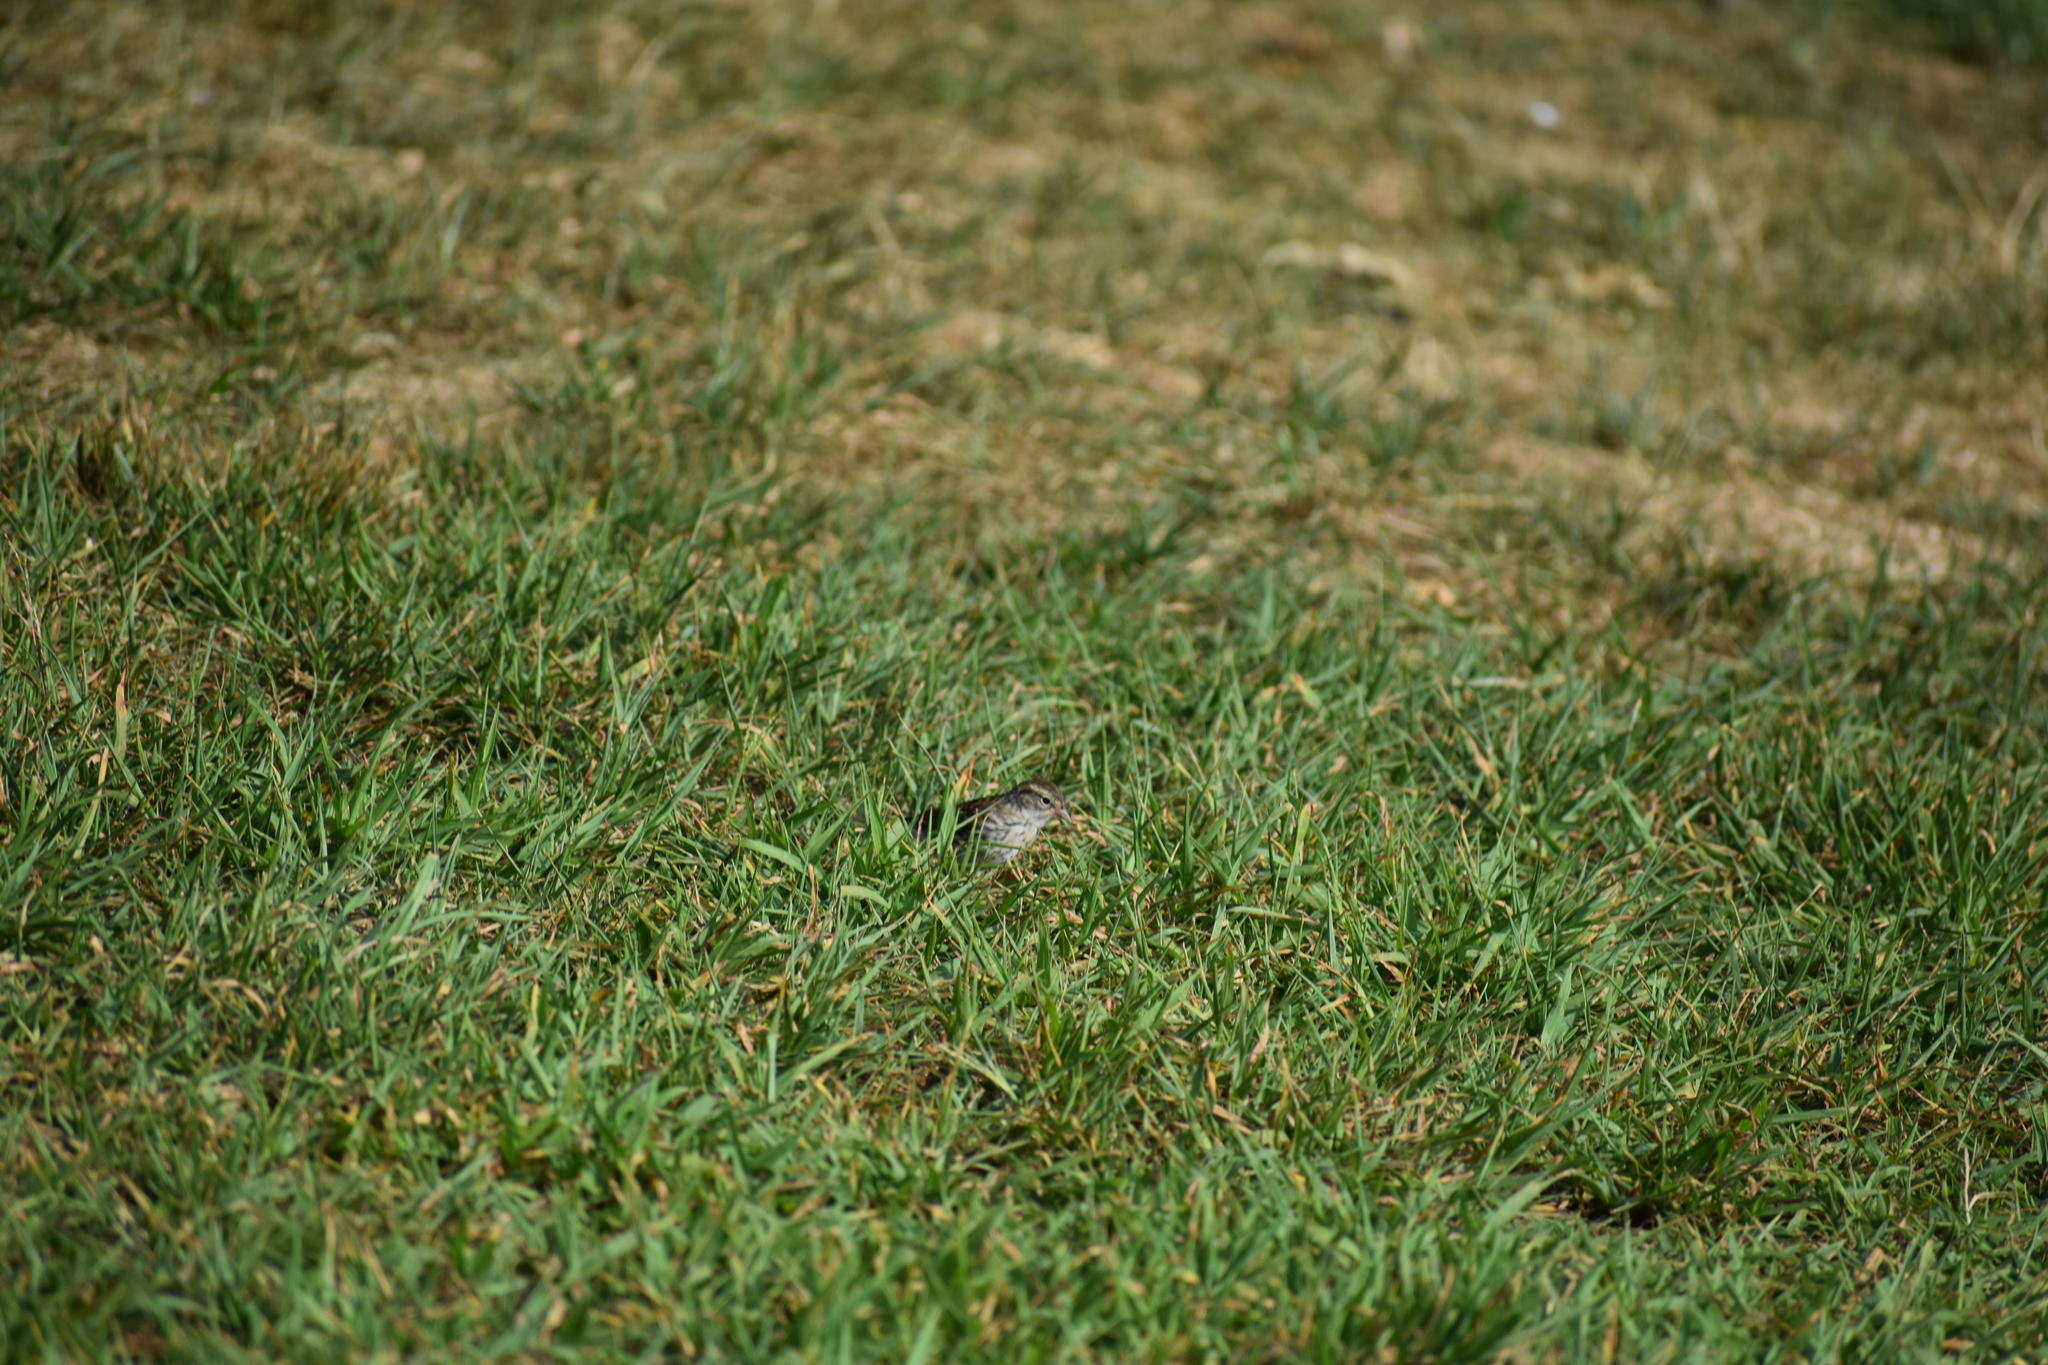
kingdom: Animalia
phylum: Chordata
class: Aves
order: Passeriformes
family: Passerellidae
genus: Spizella
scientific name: Spizella passerina
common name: Chipping sparrow
